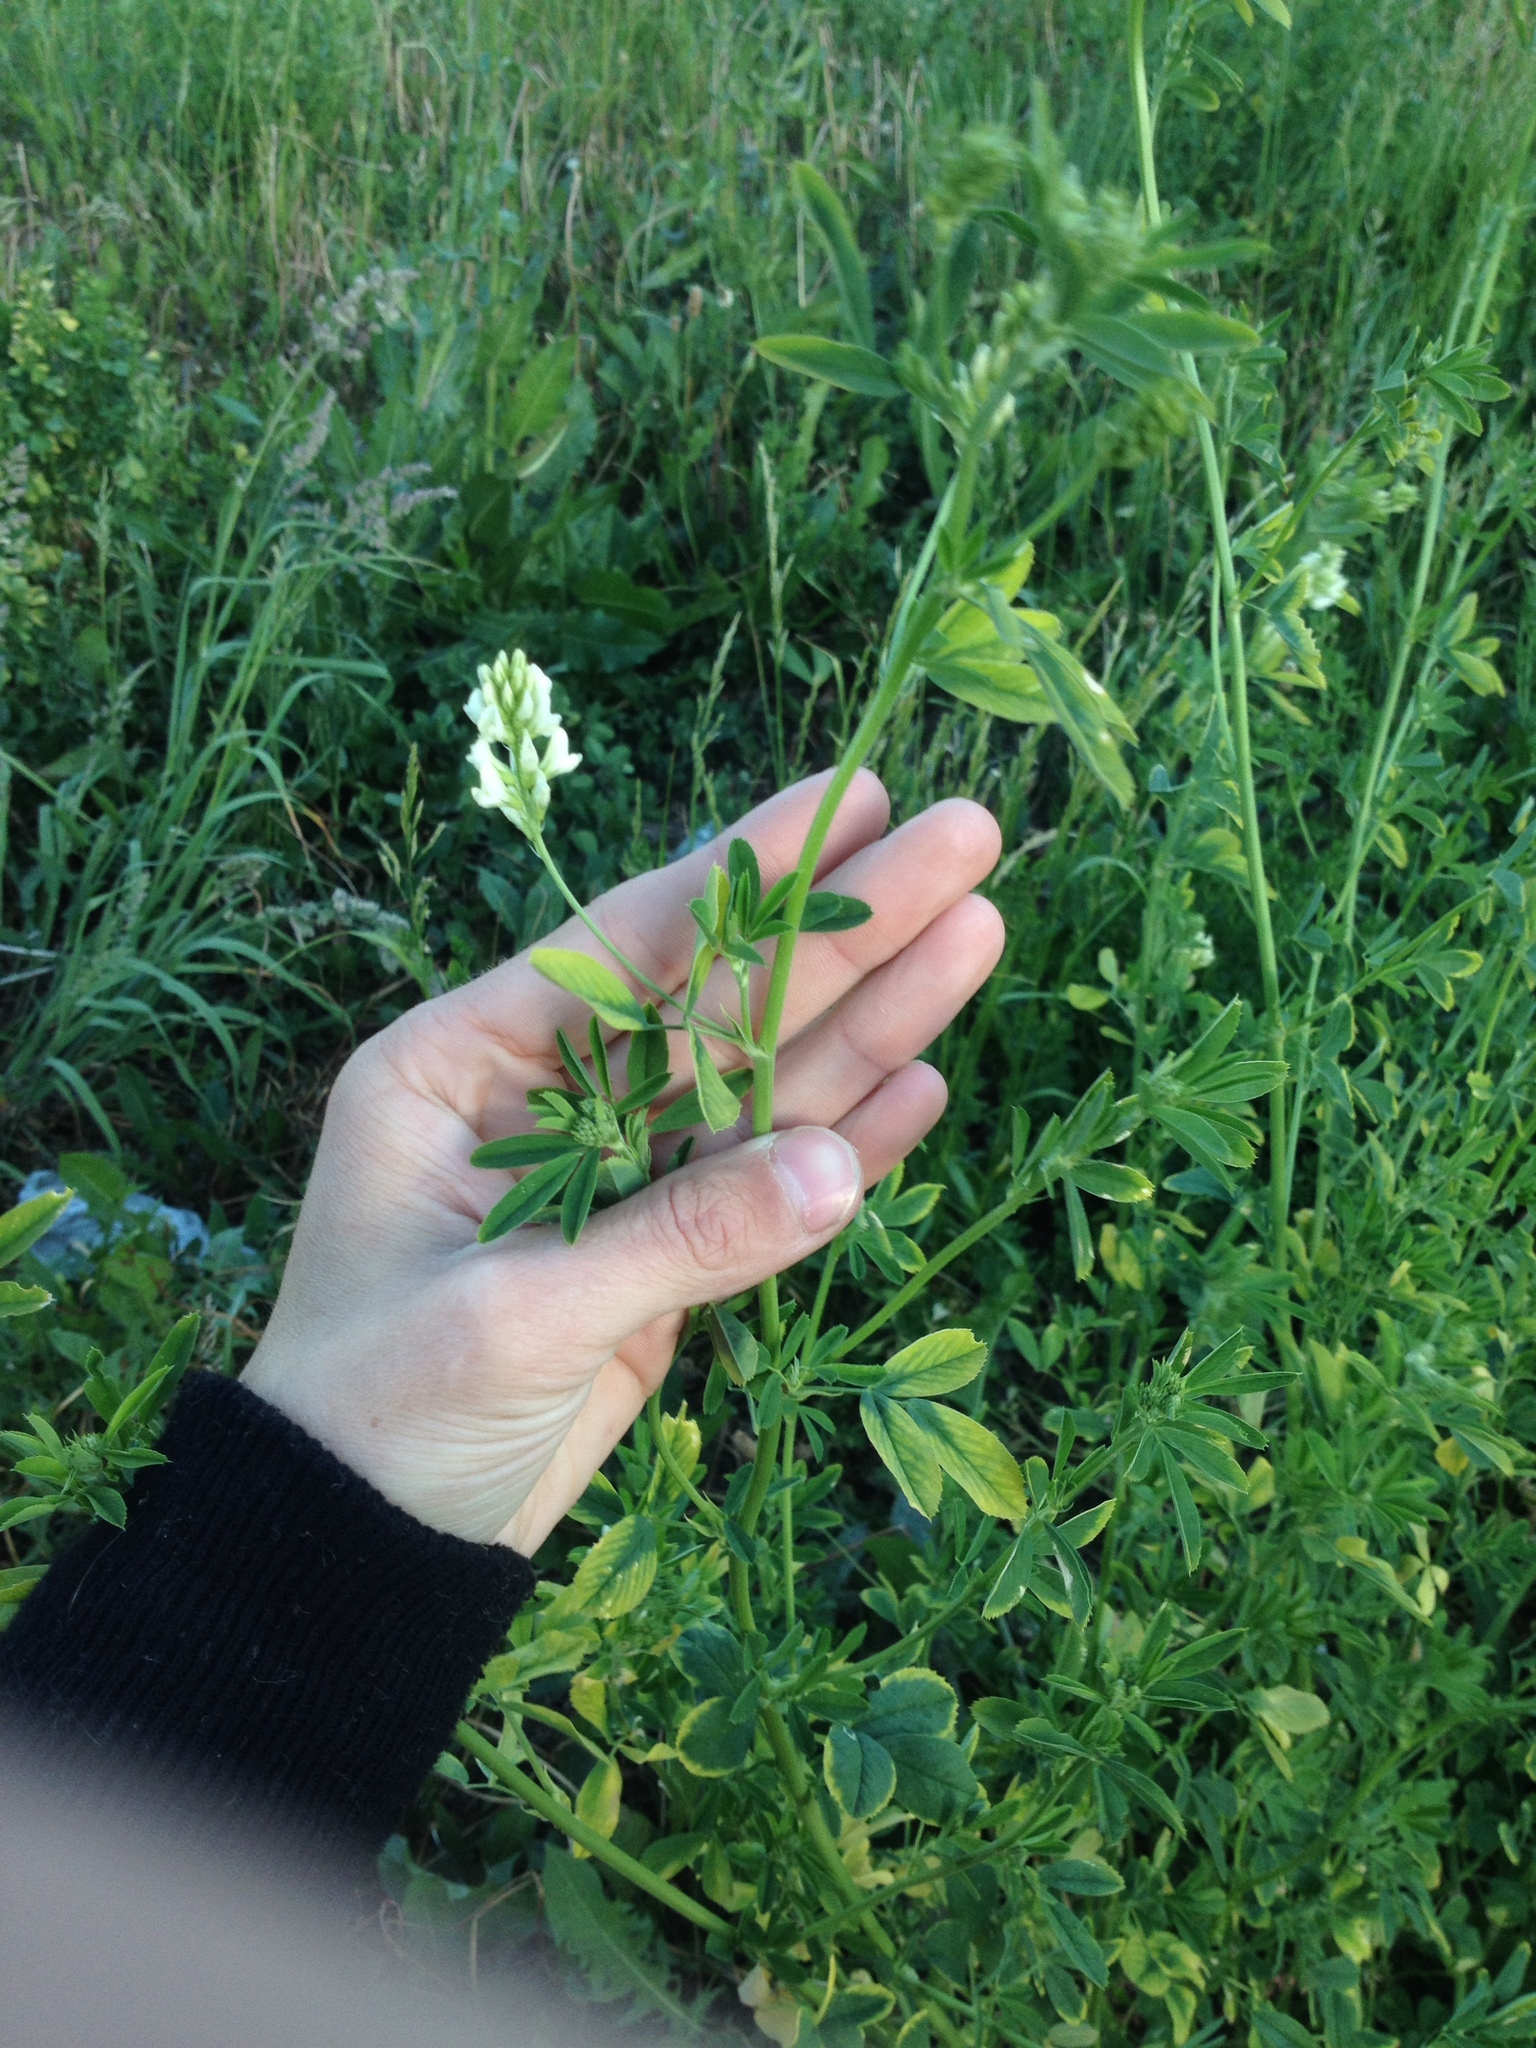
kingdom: Plantae
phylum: Tracheophyta
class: Magnoliopsida
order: Fabales
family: Fabaceae
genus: Melilotus
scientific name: Melilotus albus
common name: White melilot
